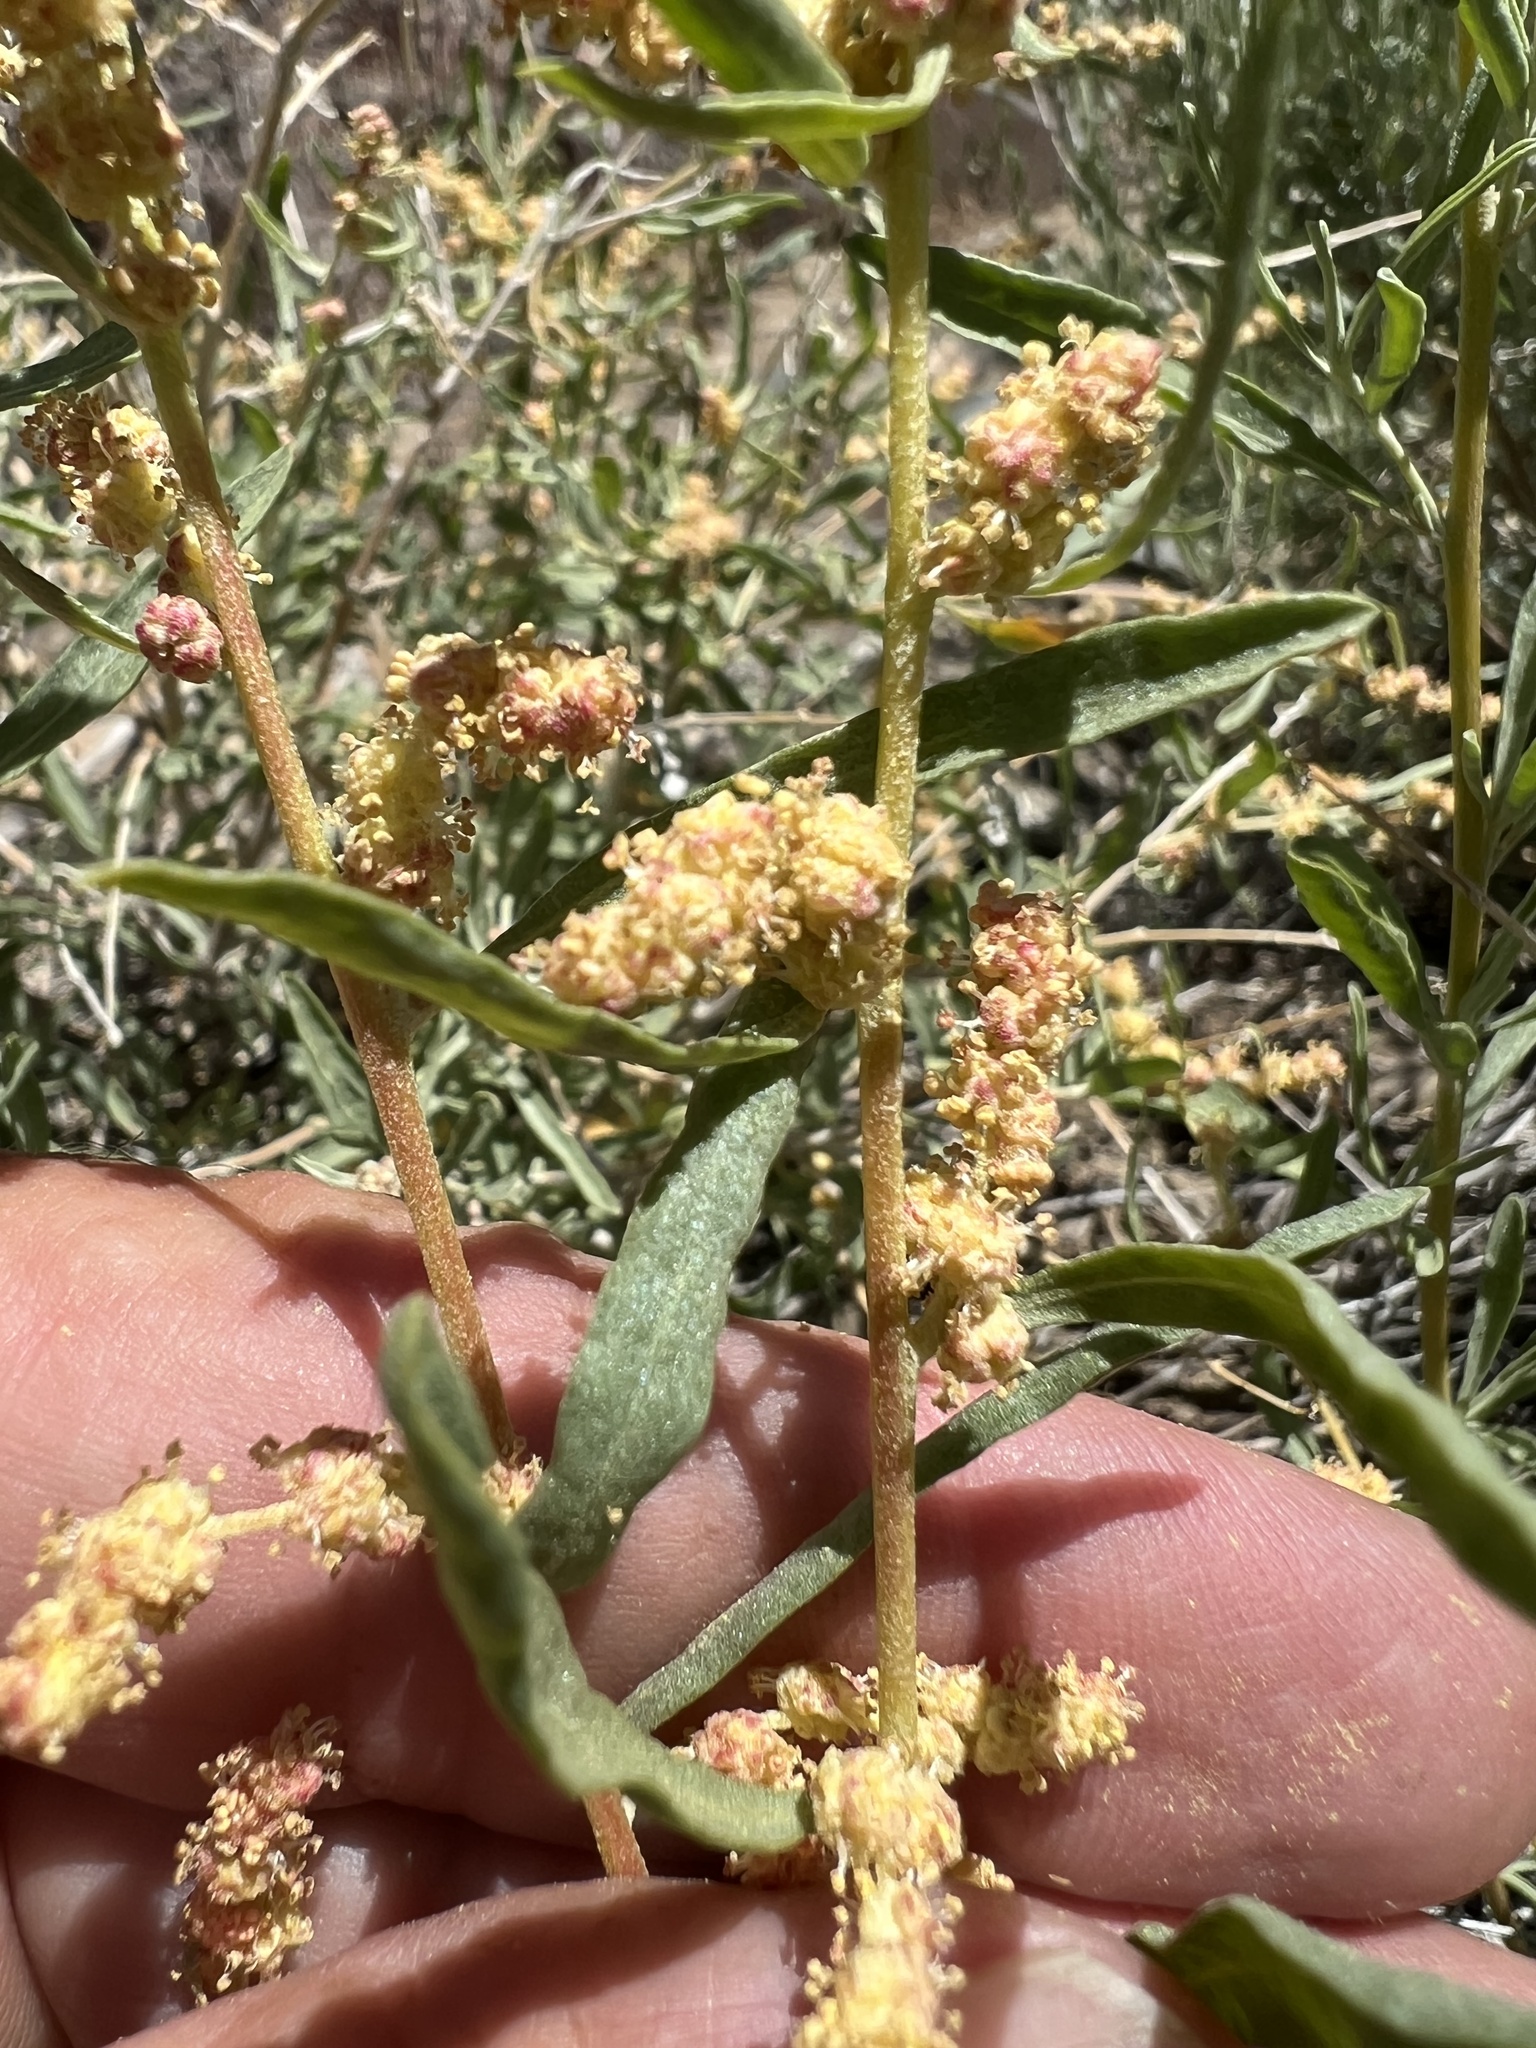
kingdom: Plantae
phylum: Tracheophyta
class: Magnoliopsida
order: Caryophyllales
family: Amaranthaceae
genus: Atriplex
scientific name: Atriplex canescens
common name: Four-wing saltbush
